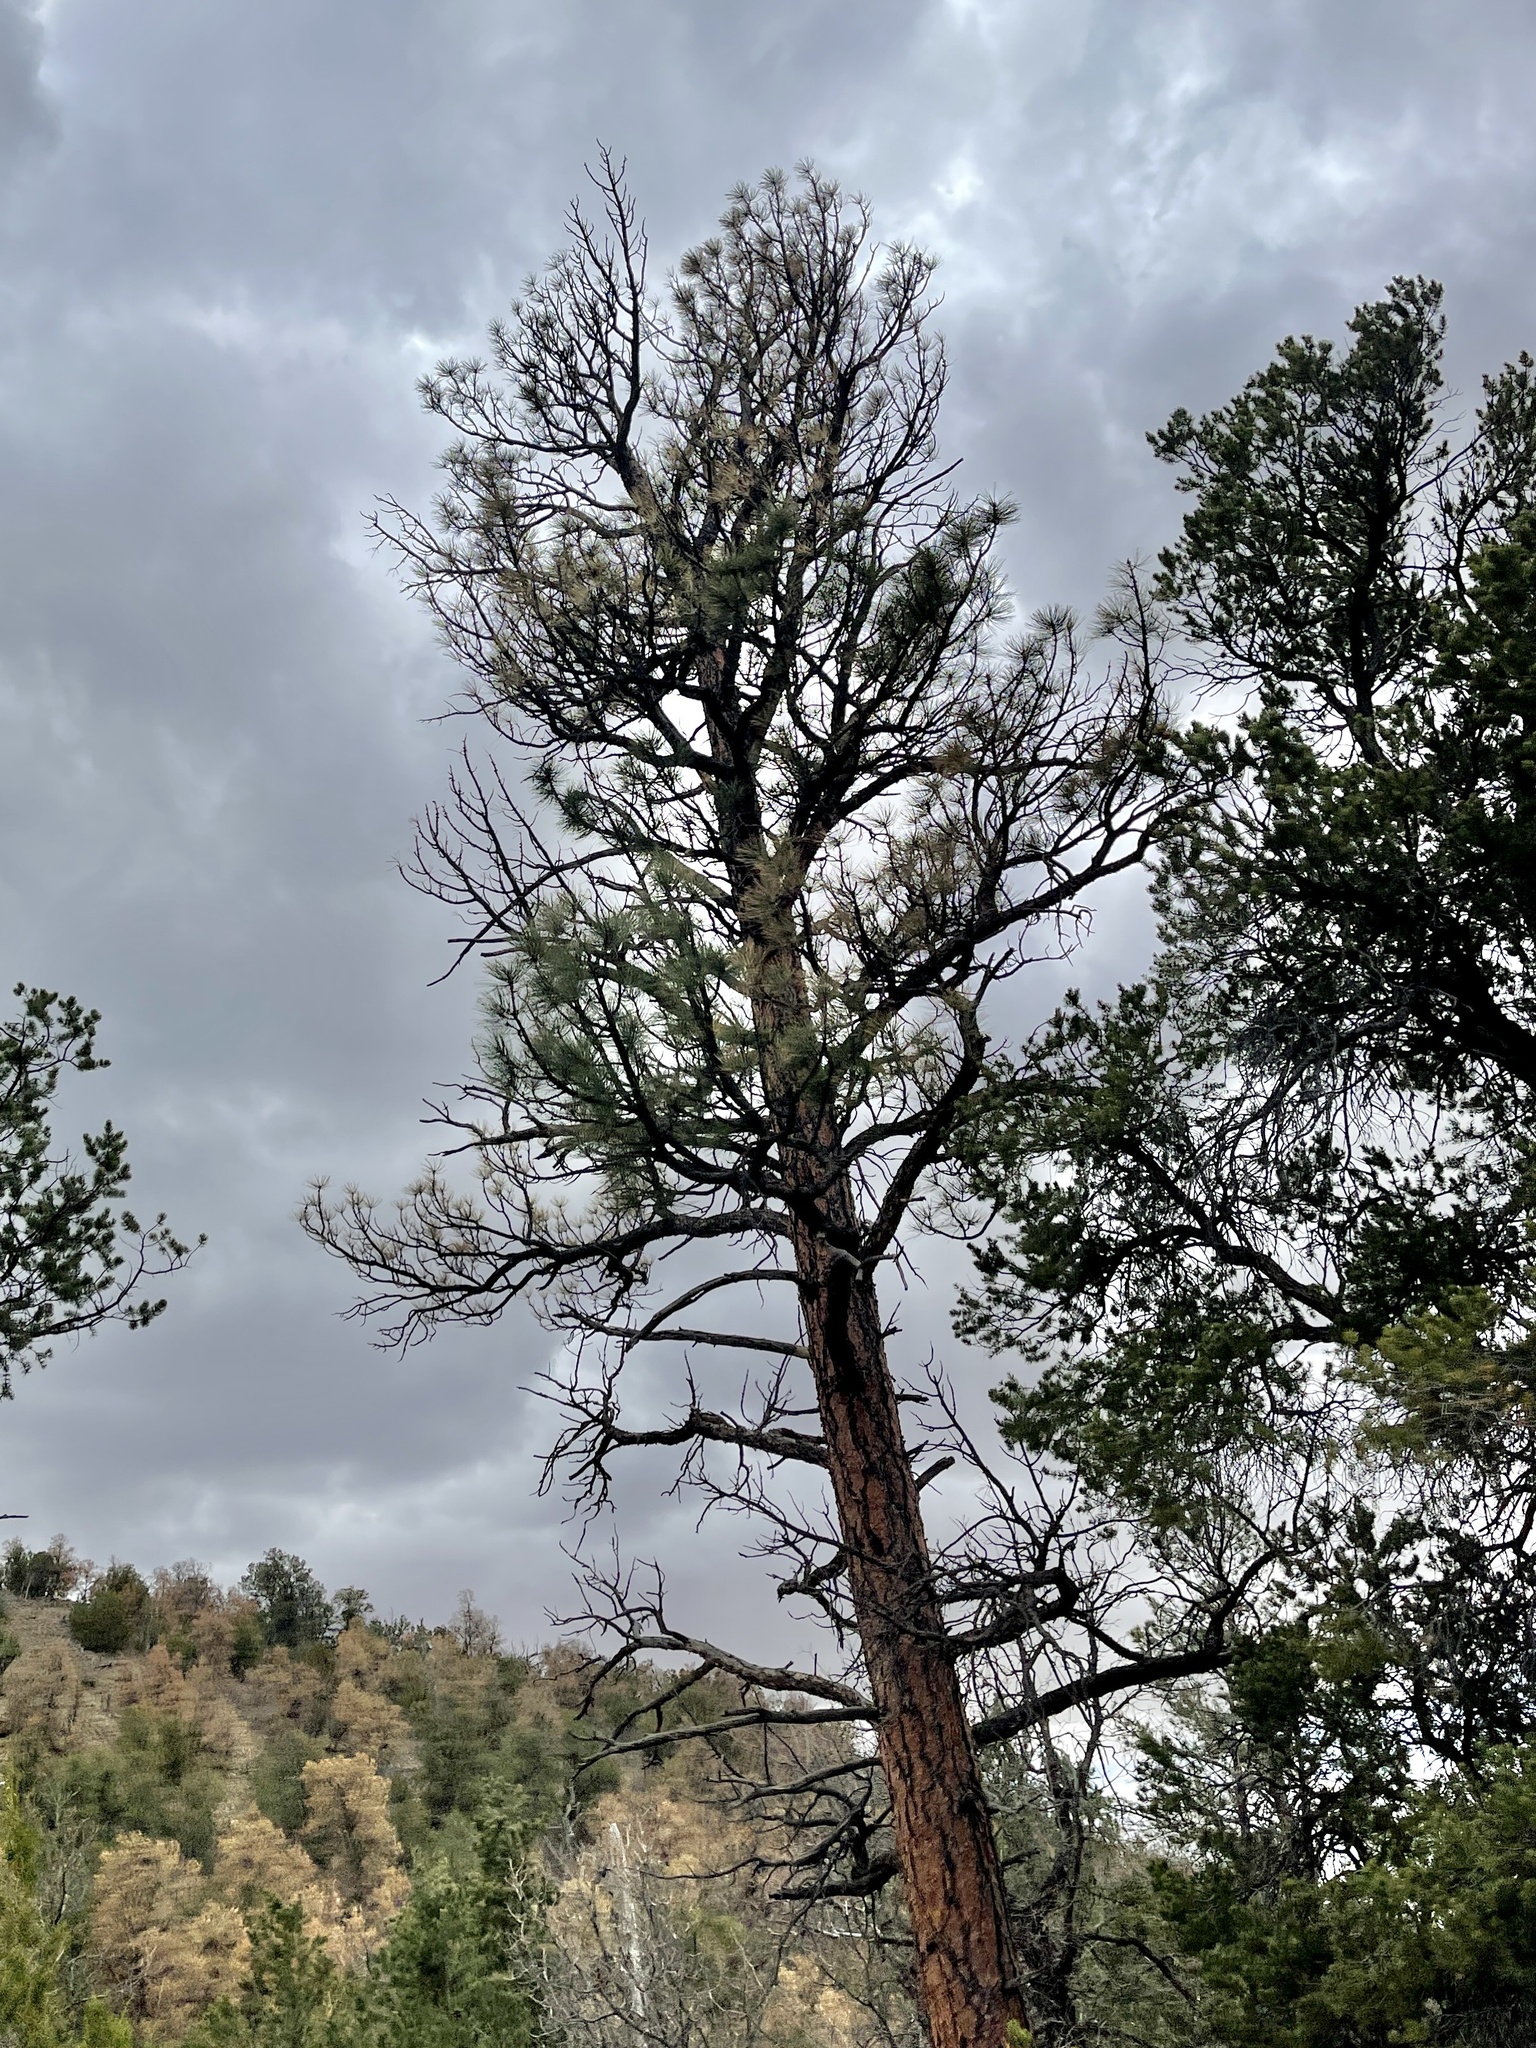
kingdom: Plantae
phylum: Tracheophyta
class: Pinopsida
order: Pinales
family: Pinaceae
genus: Pinus
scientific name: Pinus ponderosa
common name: Western yellow-pine
